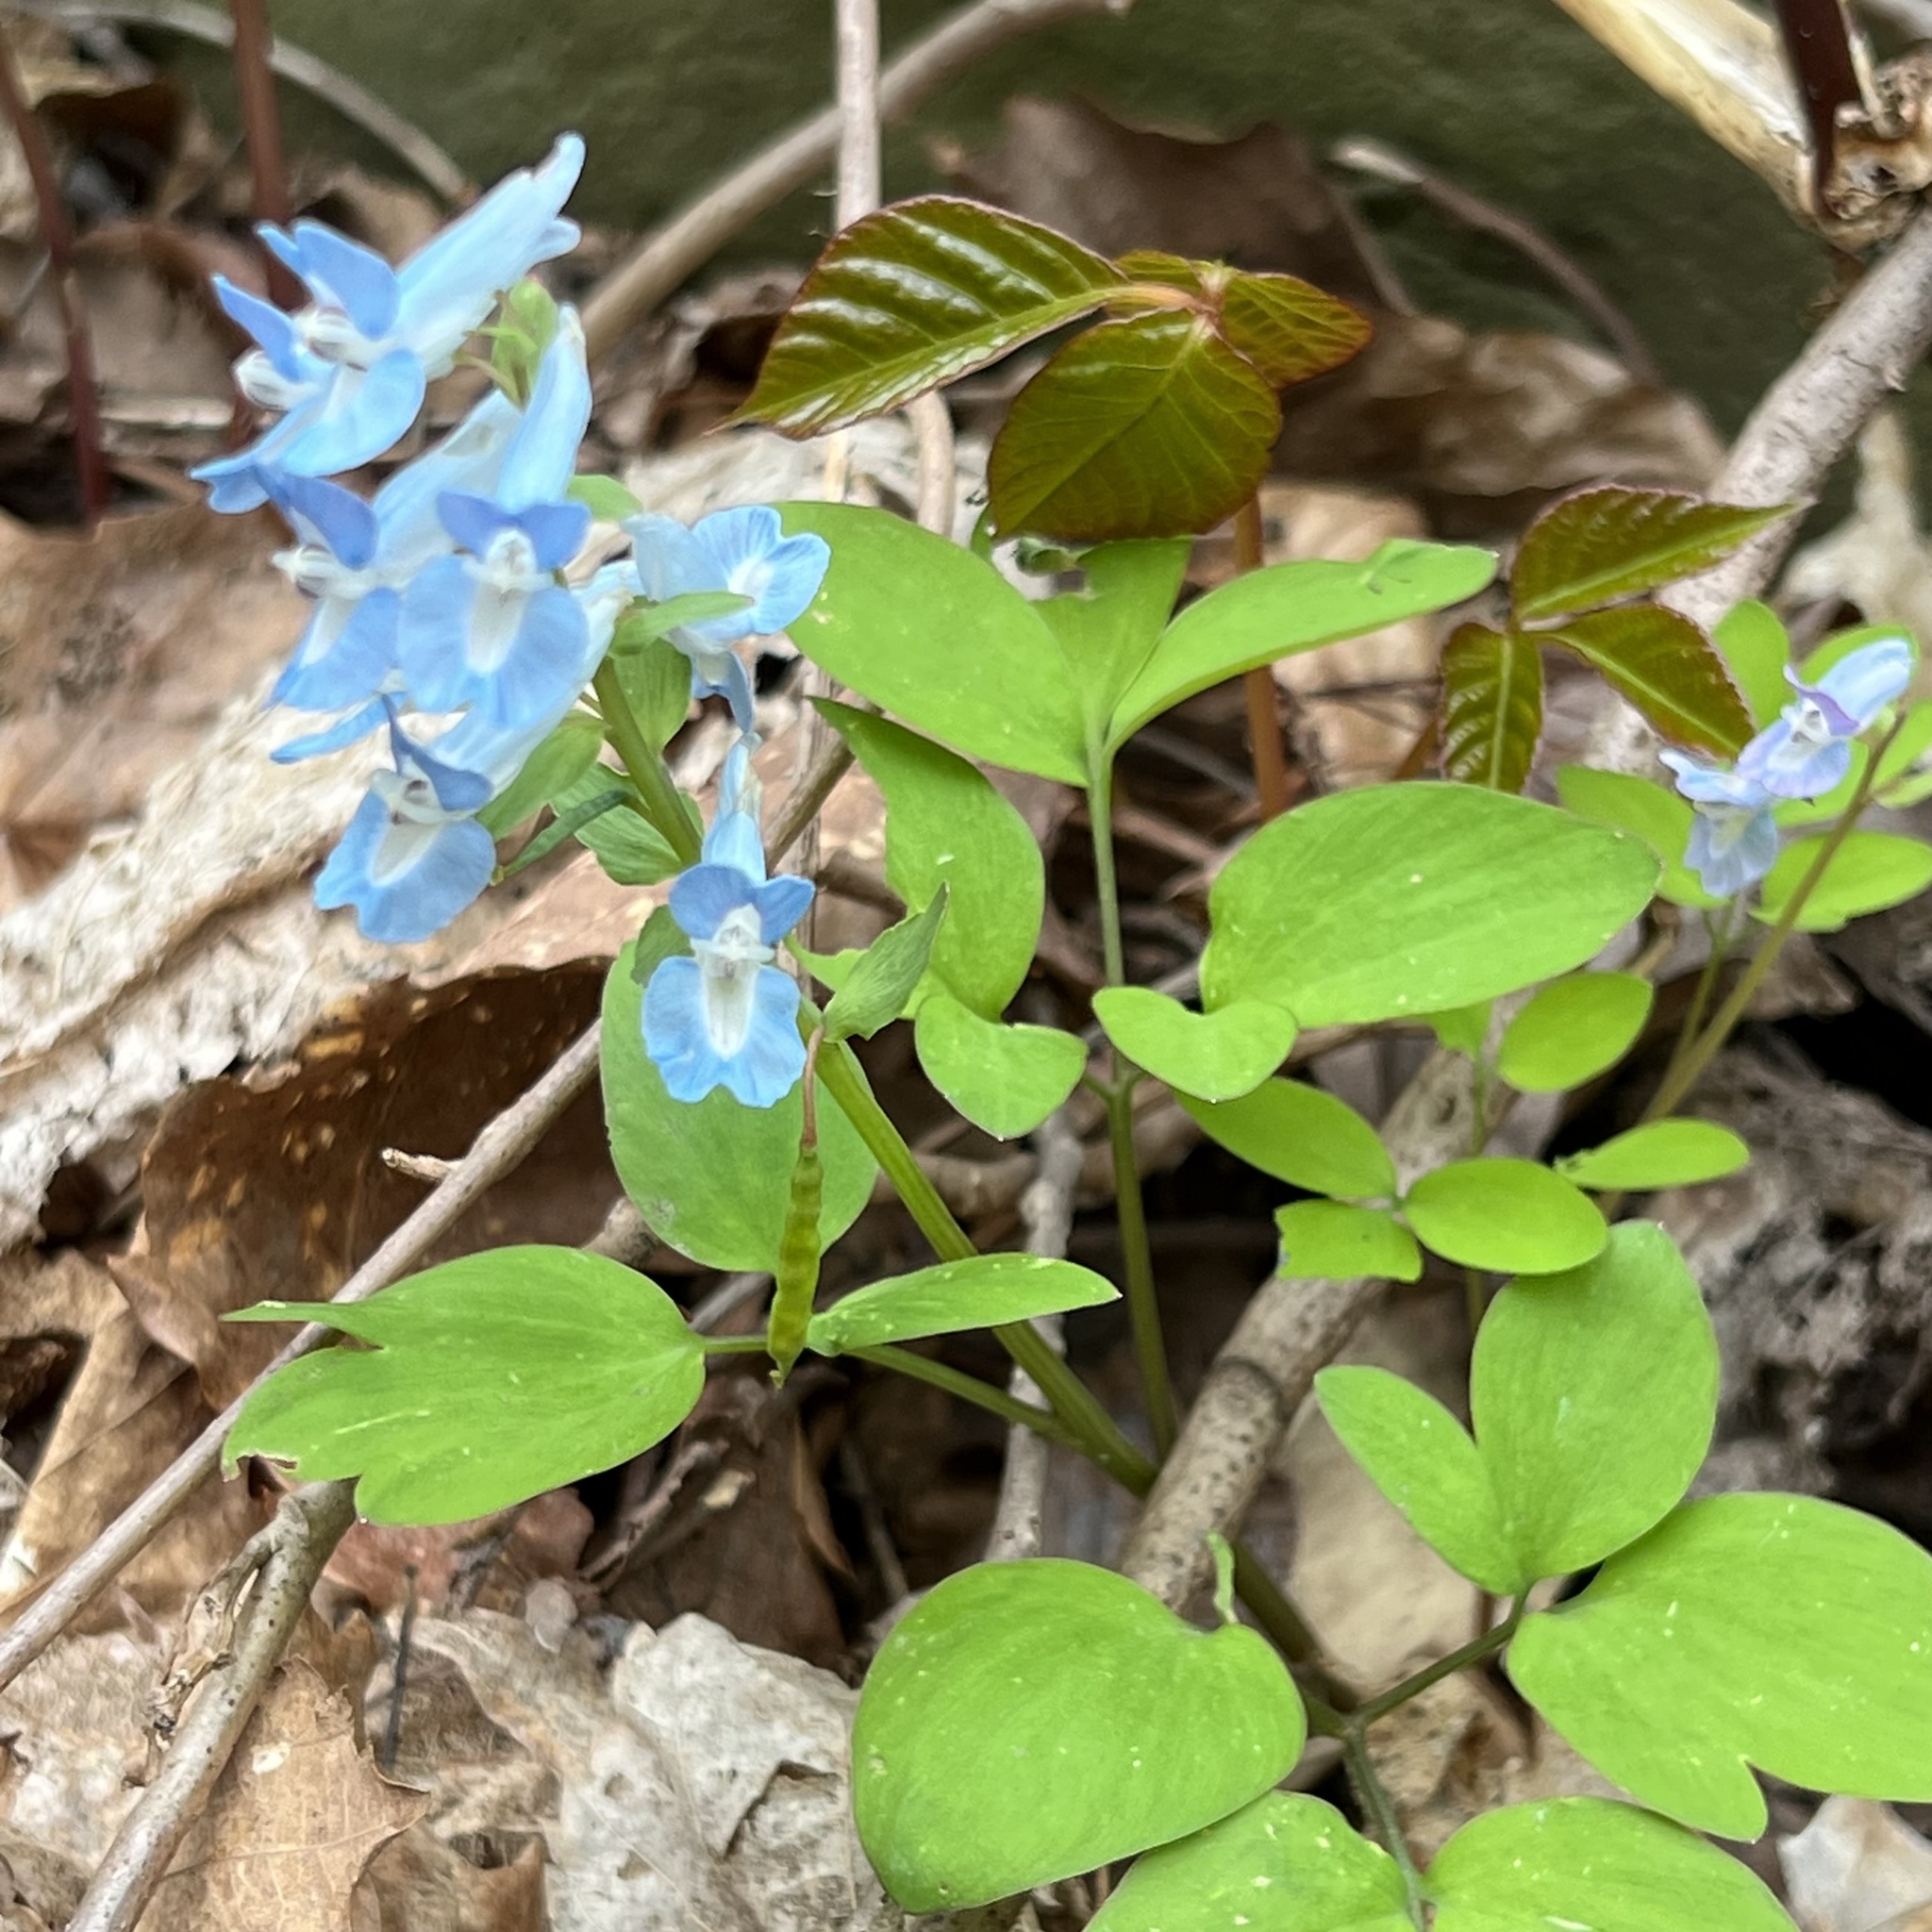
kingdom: Plantae
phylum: Tracheophyta
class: Magnoliopsida
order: Ranunculales
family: Papaveraceae
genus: Corydalis
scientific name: Corydalis fumariifolia
